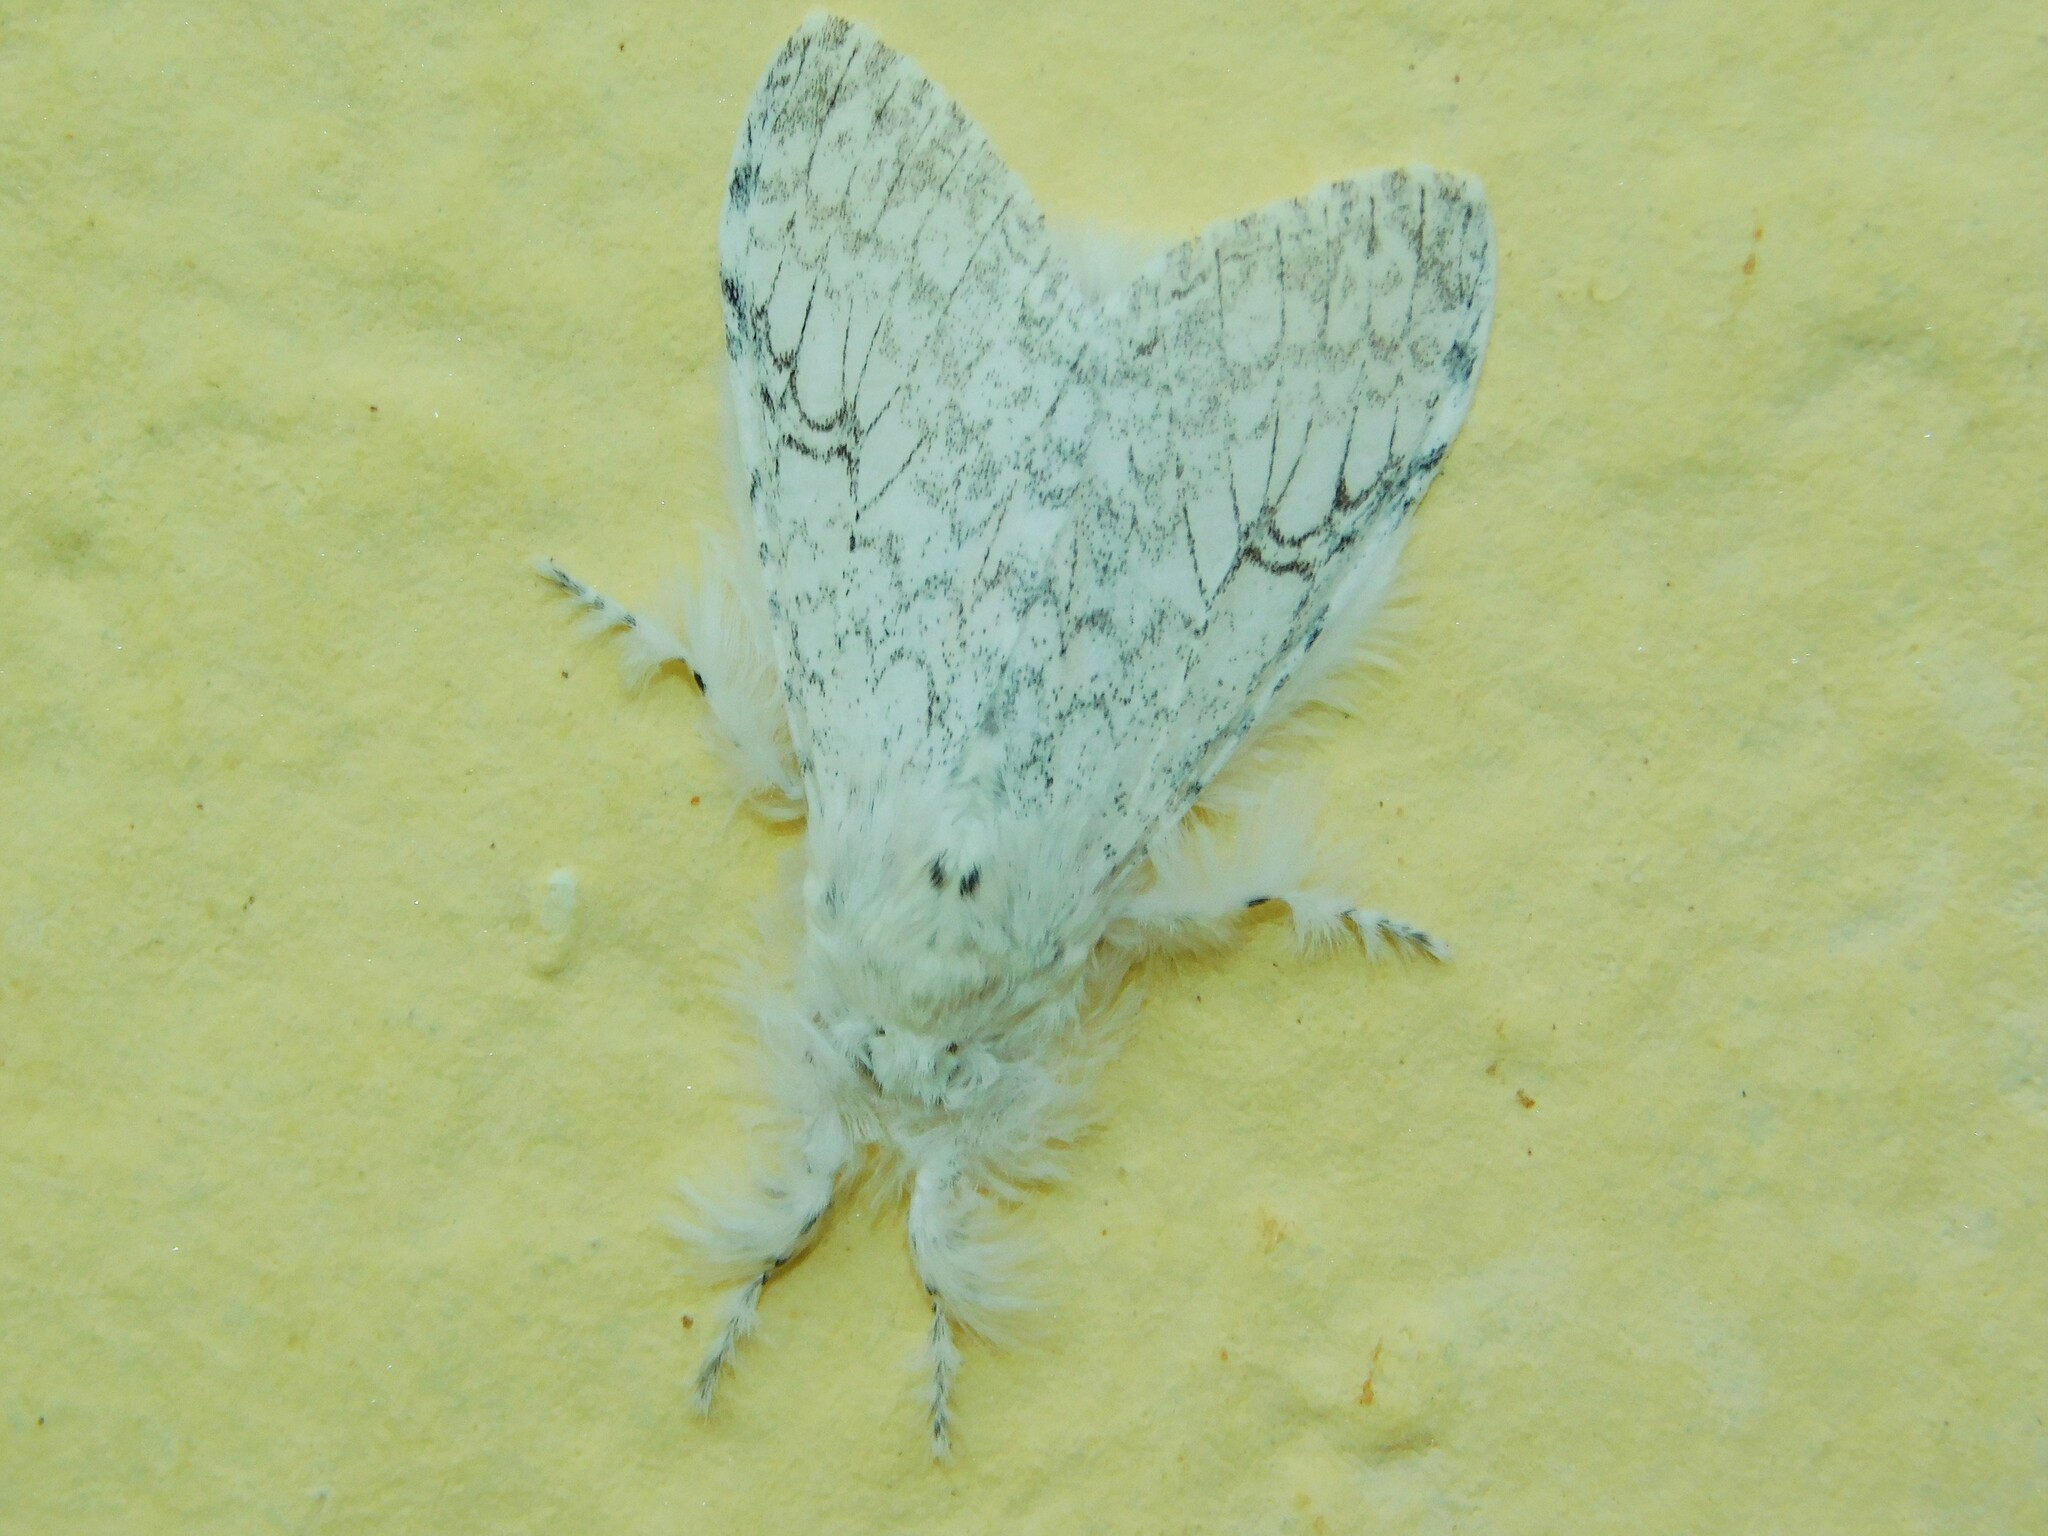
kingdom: Animalia
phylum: Arthropoda
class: Insecta
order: Lepidoptera
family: Erebidae
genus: Dasychira
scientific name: Dasychira georgiana
